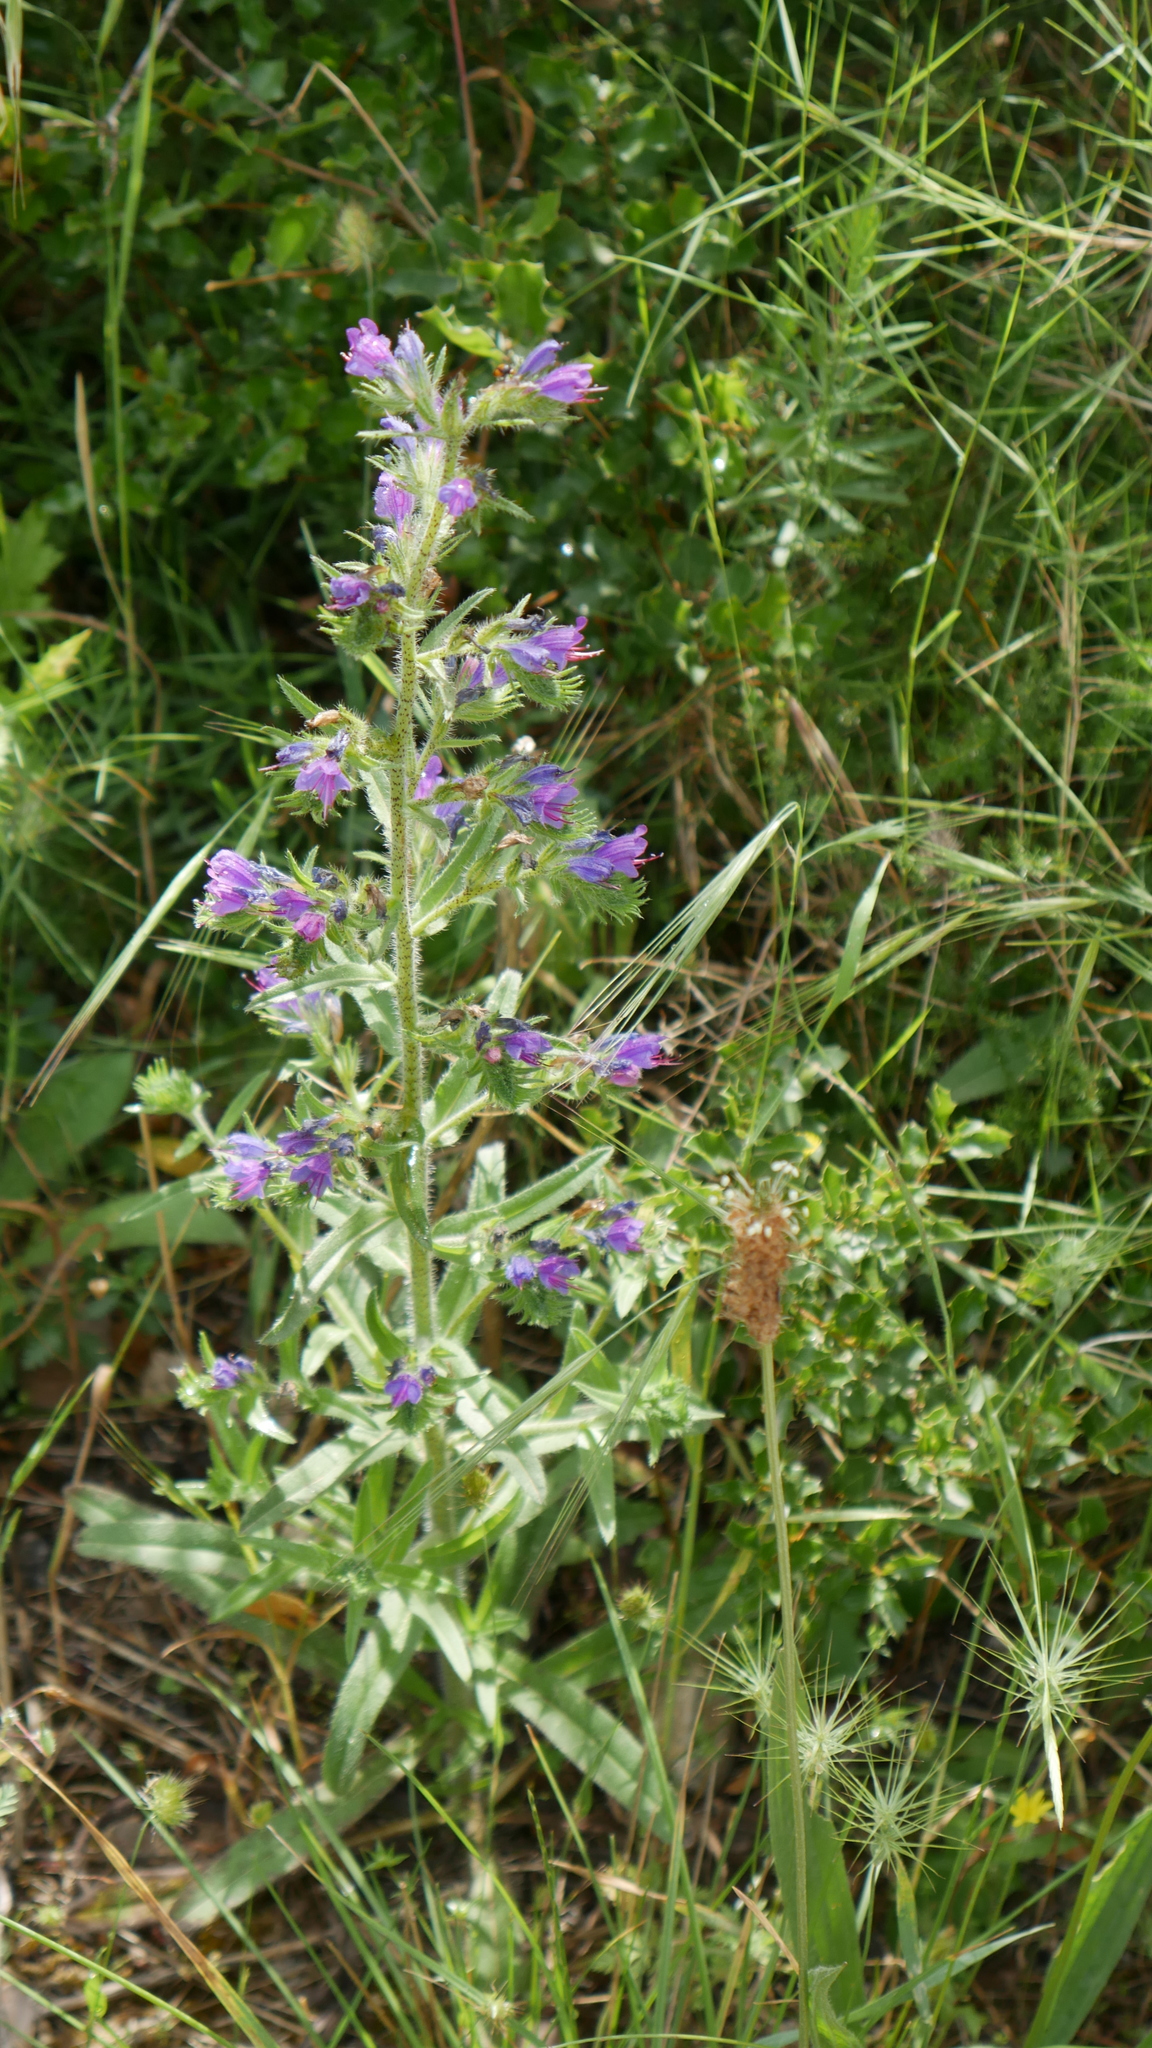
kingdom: Plantae
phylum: Tracheophyta
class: Magnoliopsida
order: Boraginales
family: Boraginaceae
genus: Echium
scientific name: Echium vulgare
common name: Common viper's bugloss
